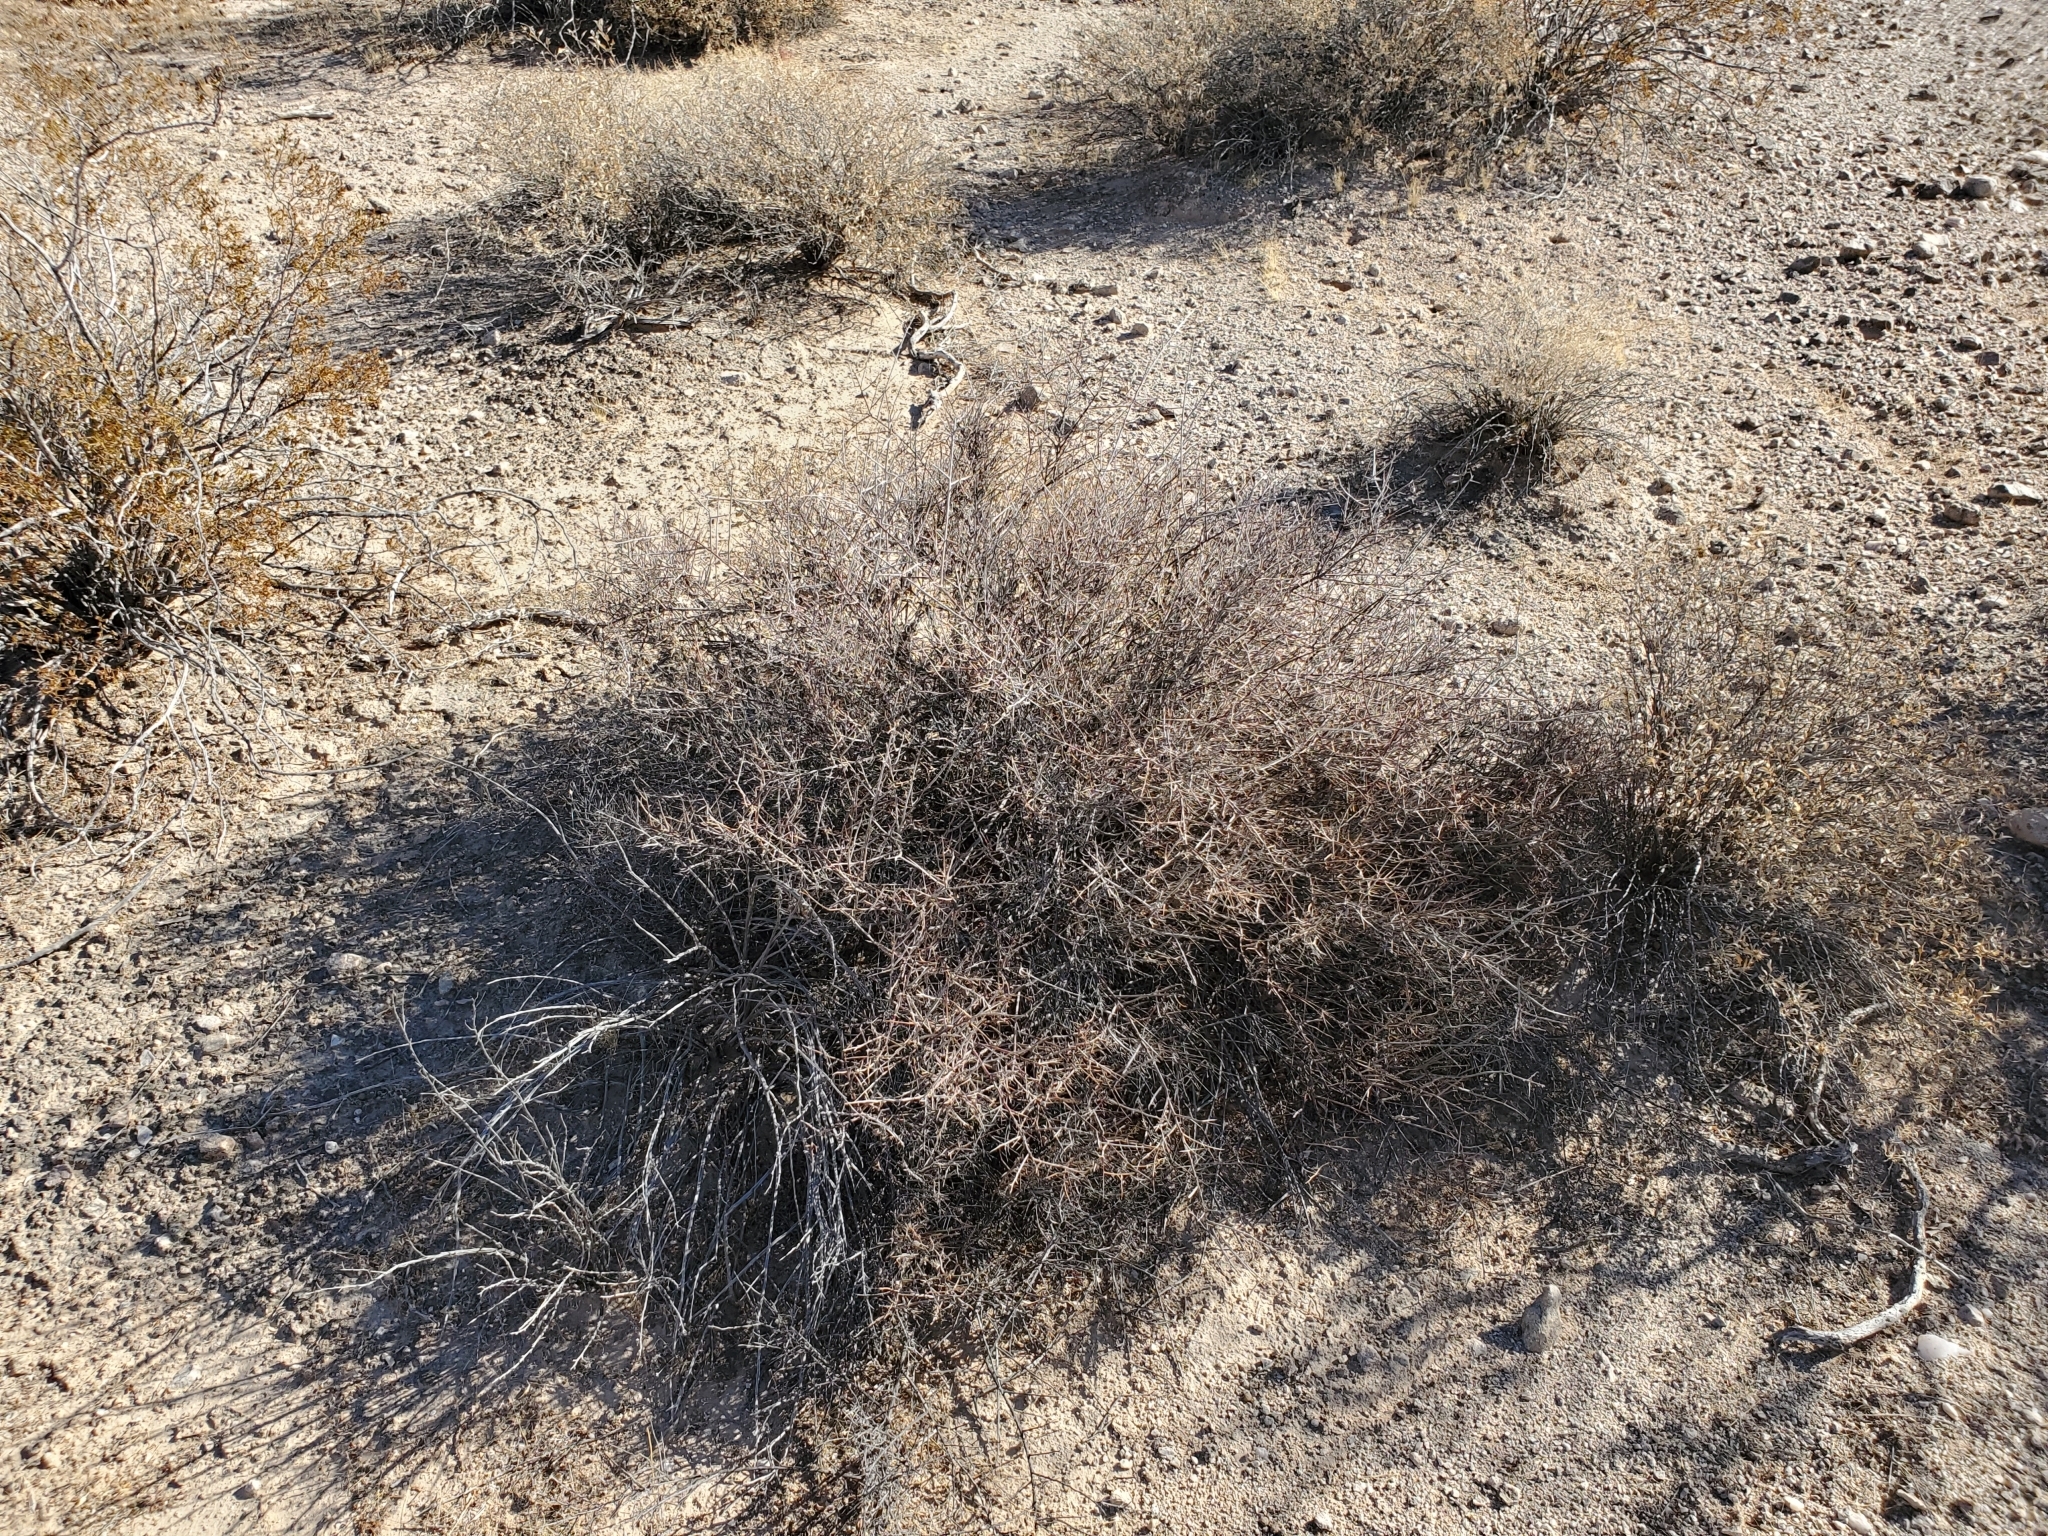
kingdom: Plantae
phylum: Tracheophyta
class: Magnoliopsida
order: Zygophyllales
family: Krameriaceae
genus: Krameria
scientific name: Krameria bicolor
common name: White ratany
